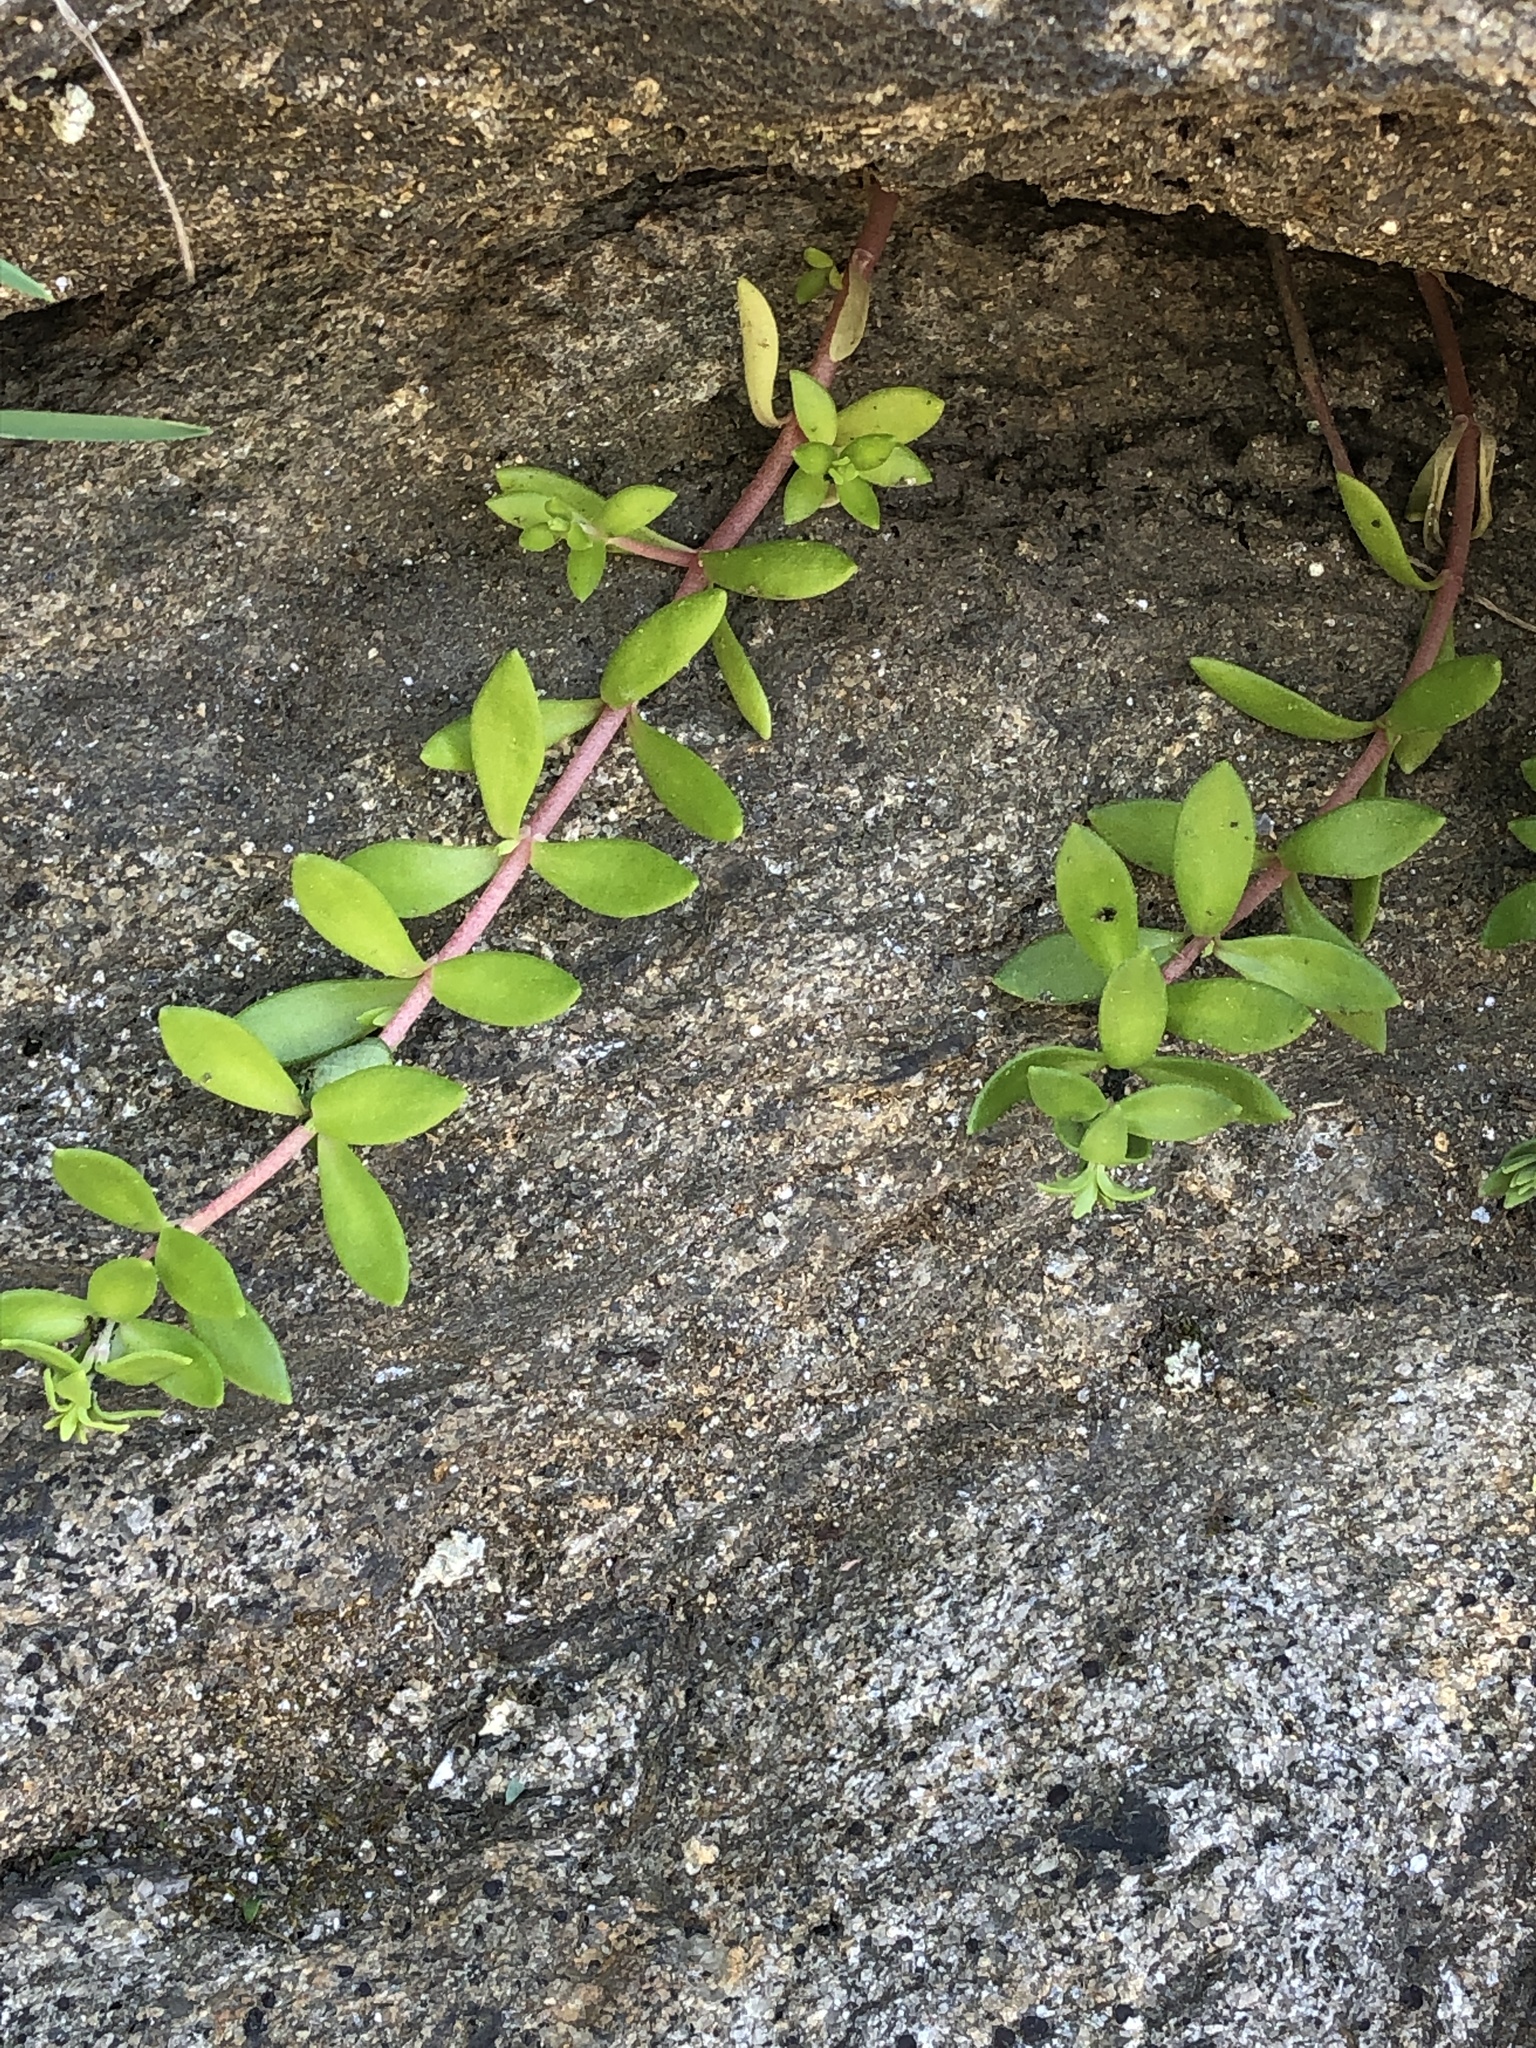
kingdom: Plantae
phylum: Tracheophyta
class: Magnoliopsida
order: Saxifragales
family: Crassulaceae
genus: Sedum
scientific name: Sedum sarmentosum
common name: Stringy stonecrop
